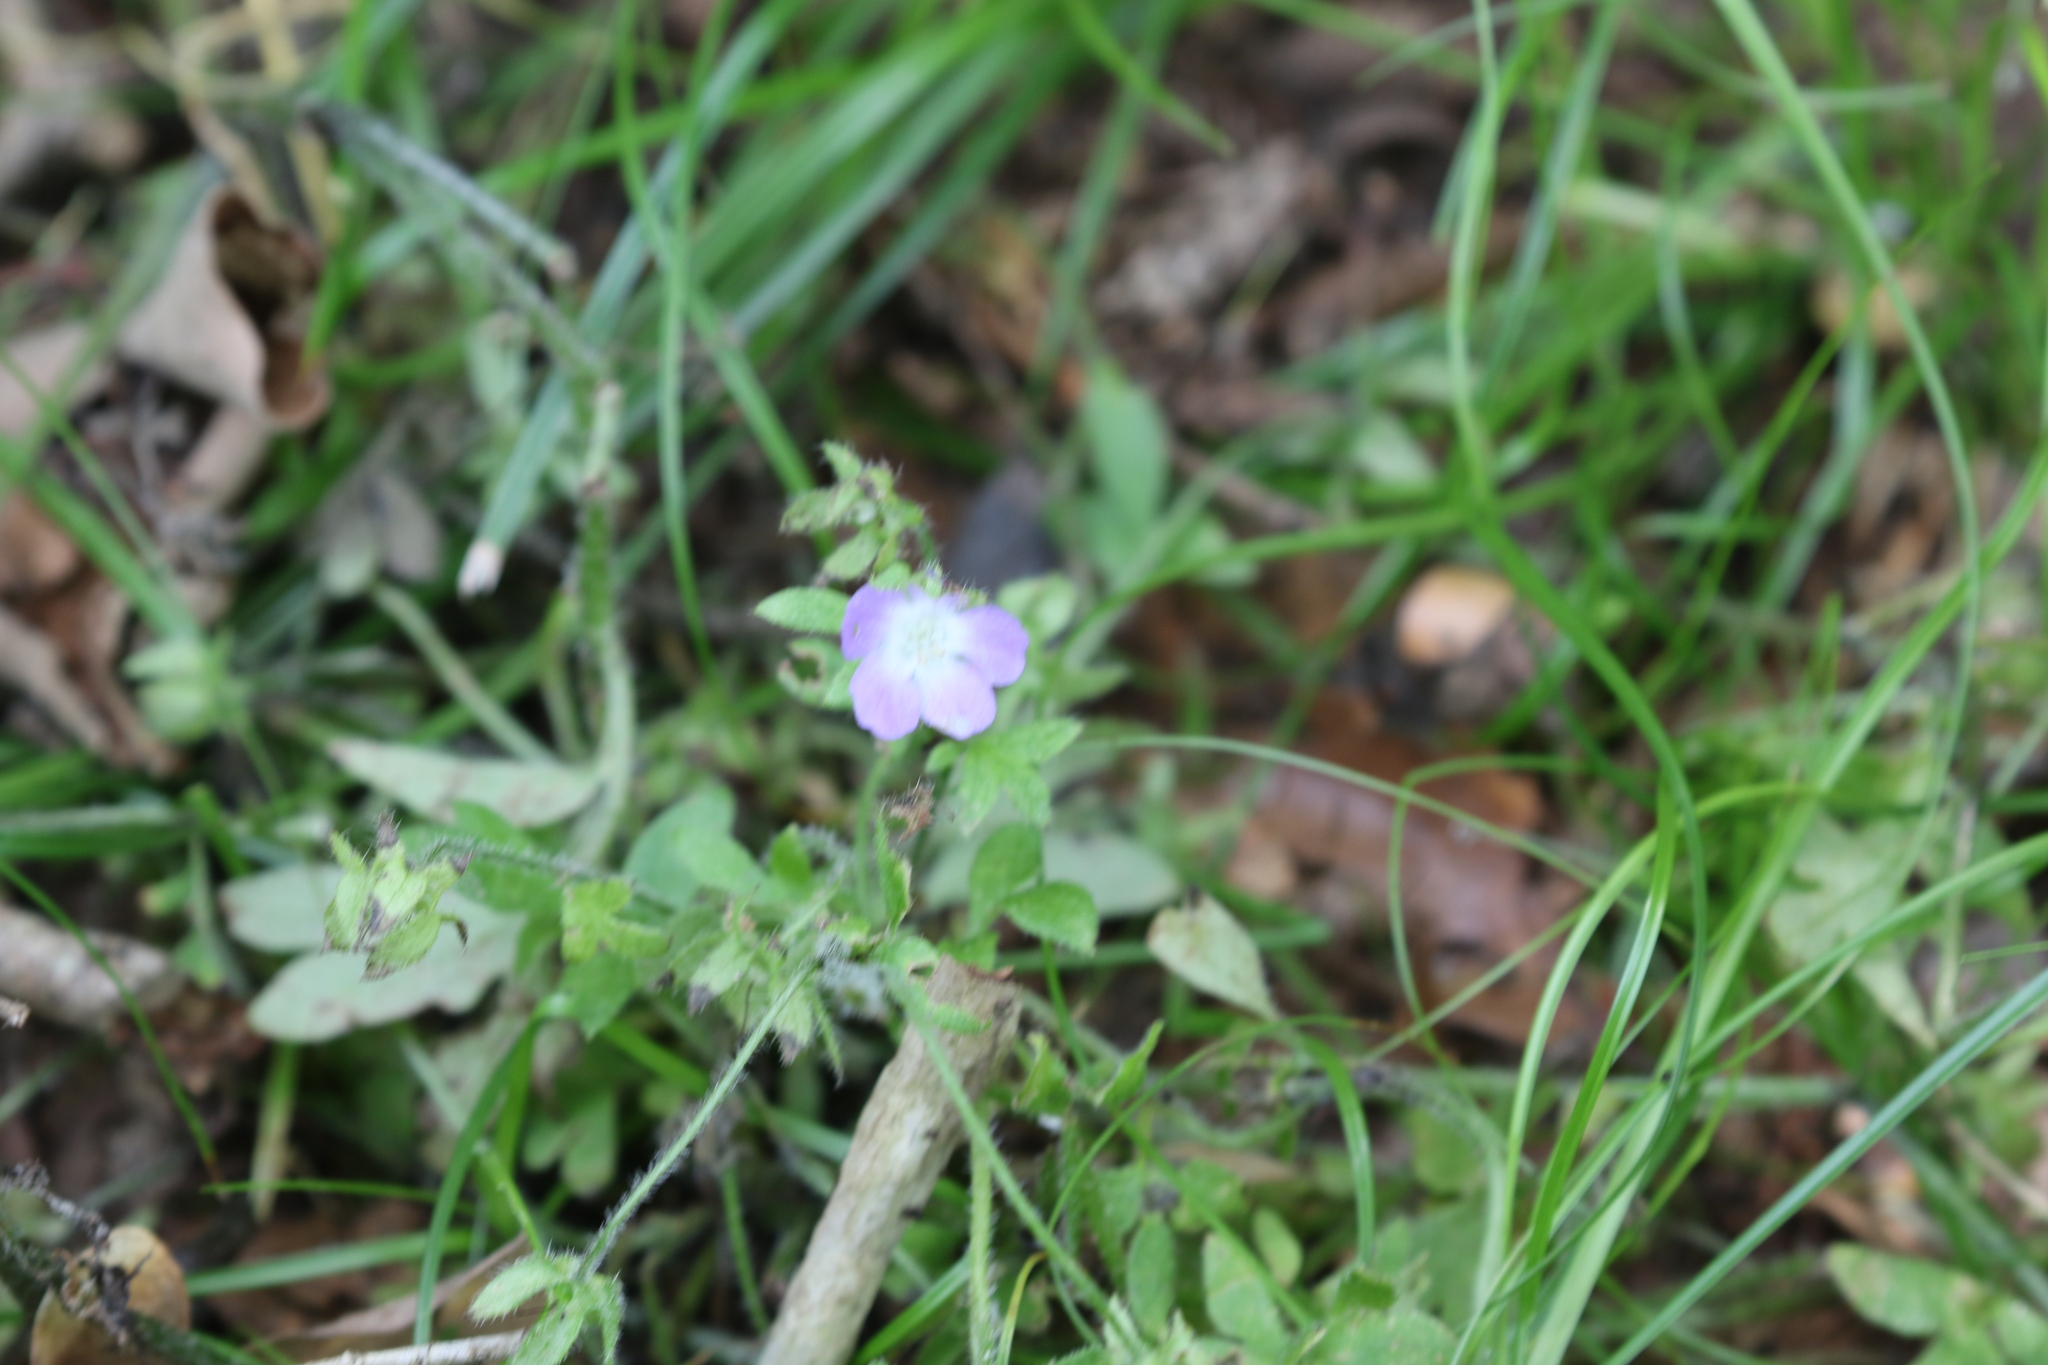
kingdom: Plantae
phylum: Tracheophyta
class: Magnoliopsida
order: Boraginales
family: Hydrophyllaceae
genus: Nemophila
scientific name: Nemophila phacelioides
